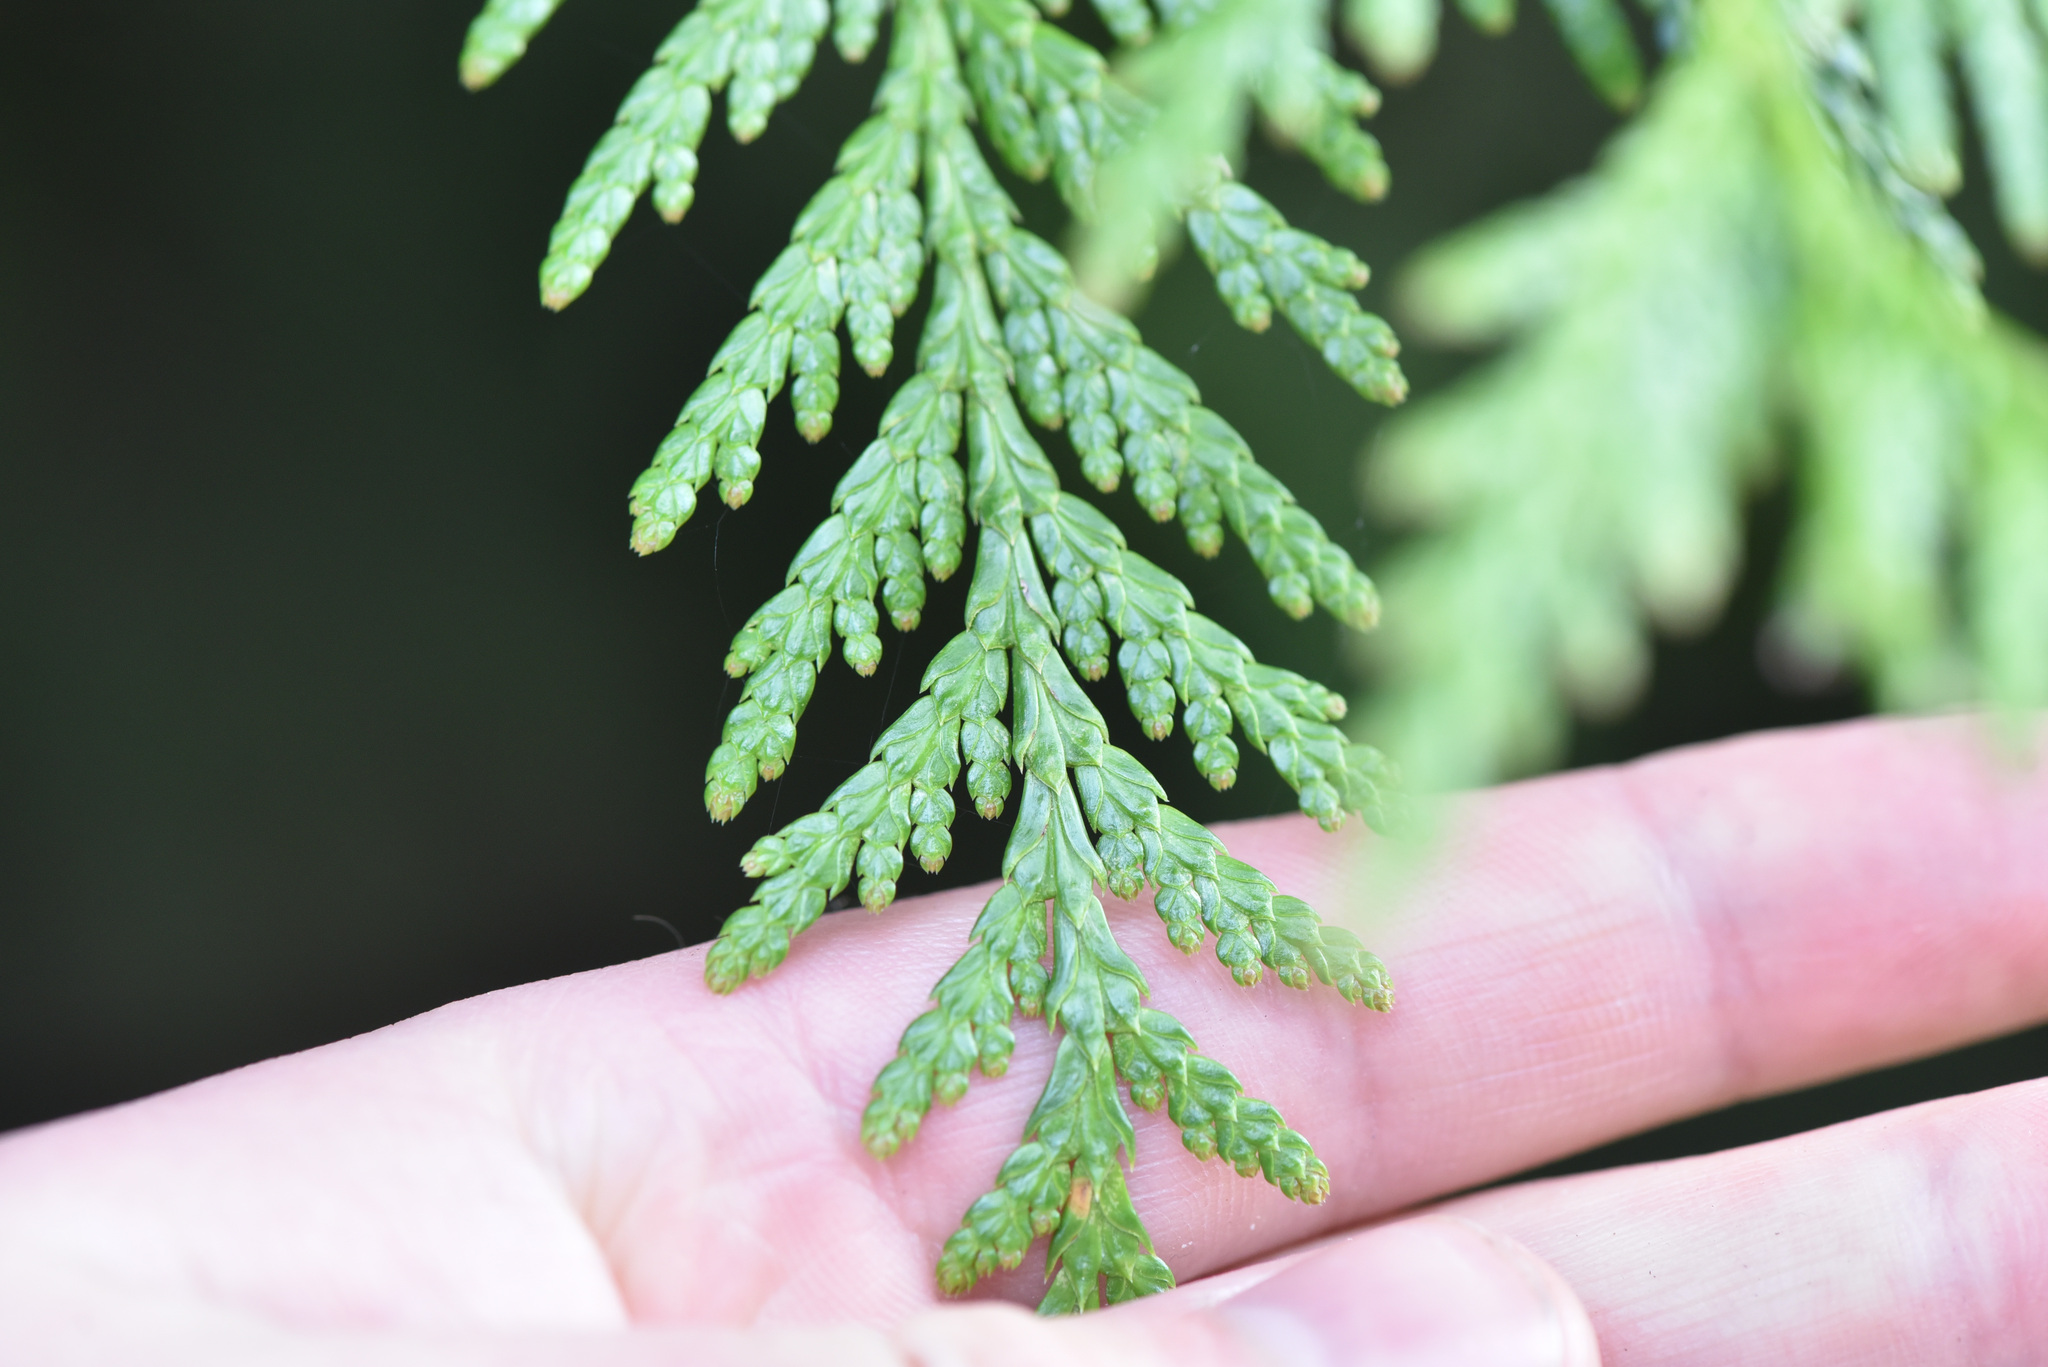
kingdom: Plantae
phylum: Tracheophyta
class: Pinopsida
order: Pinales
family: Cupressaceae
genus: Thuja
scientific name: Thuja plicata
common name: Western red-cedar
